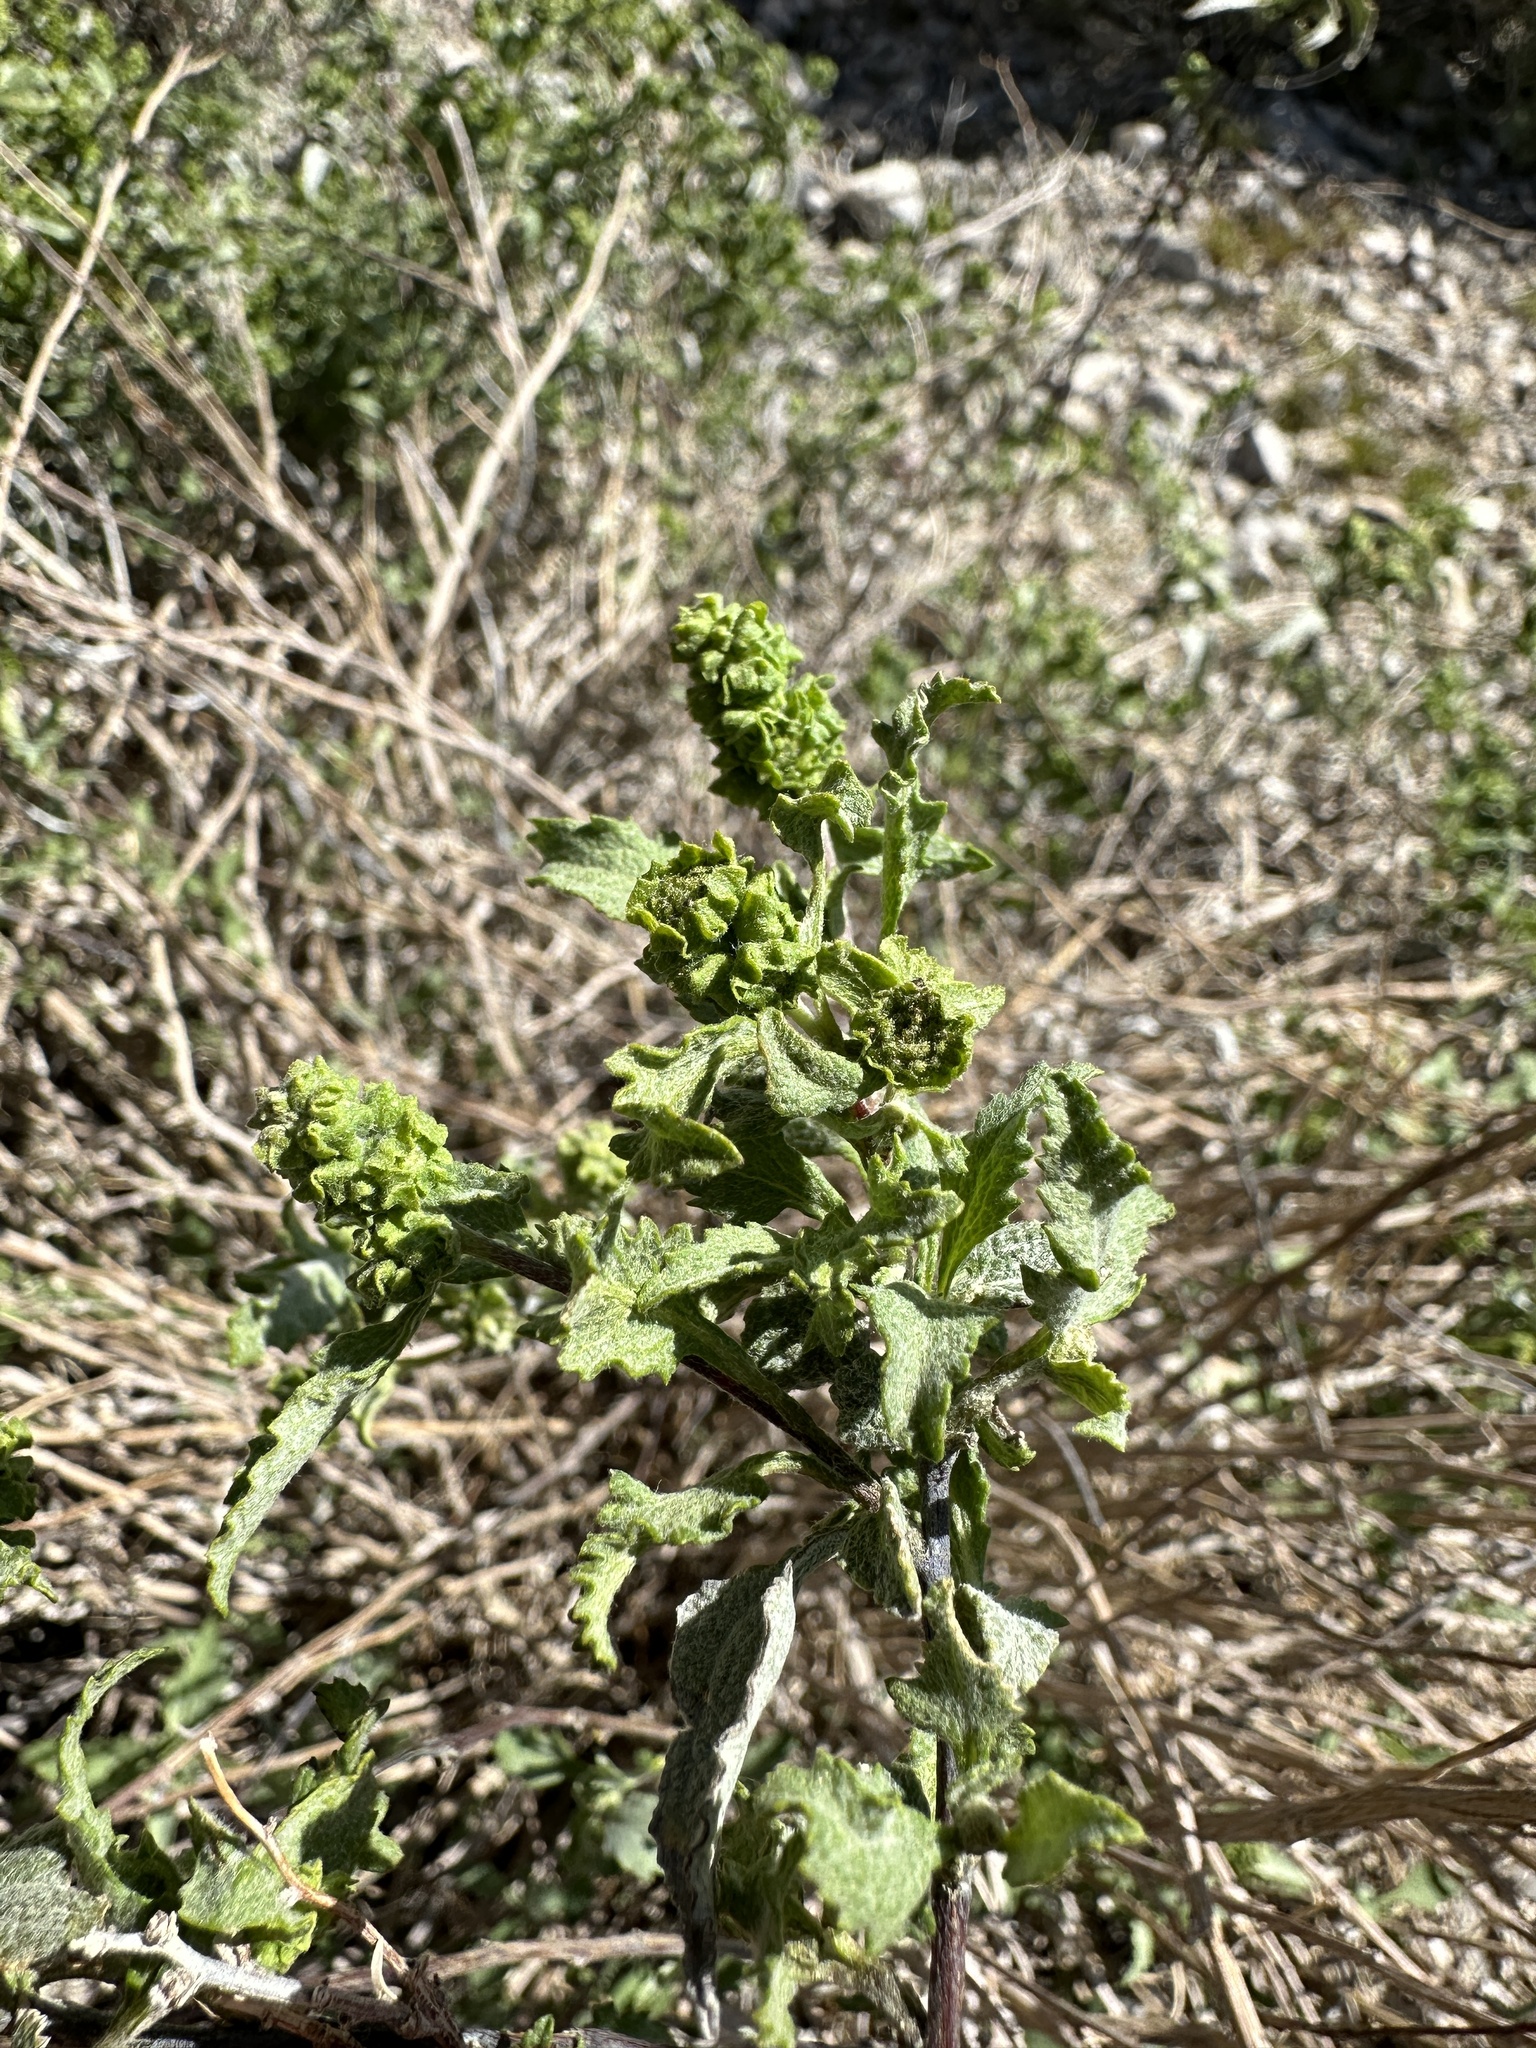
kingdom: Plantae
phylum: Tracheophyta
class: Magnoliopsida
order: Asterales
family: Asteraceae
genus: Ambrosia
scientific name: Ambrosia deltoidea
